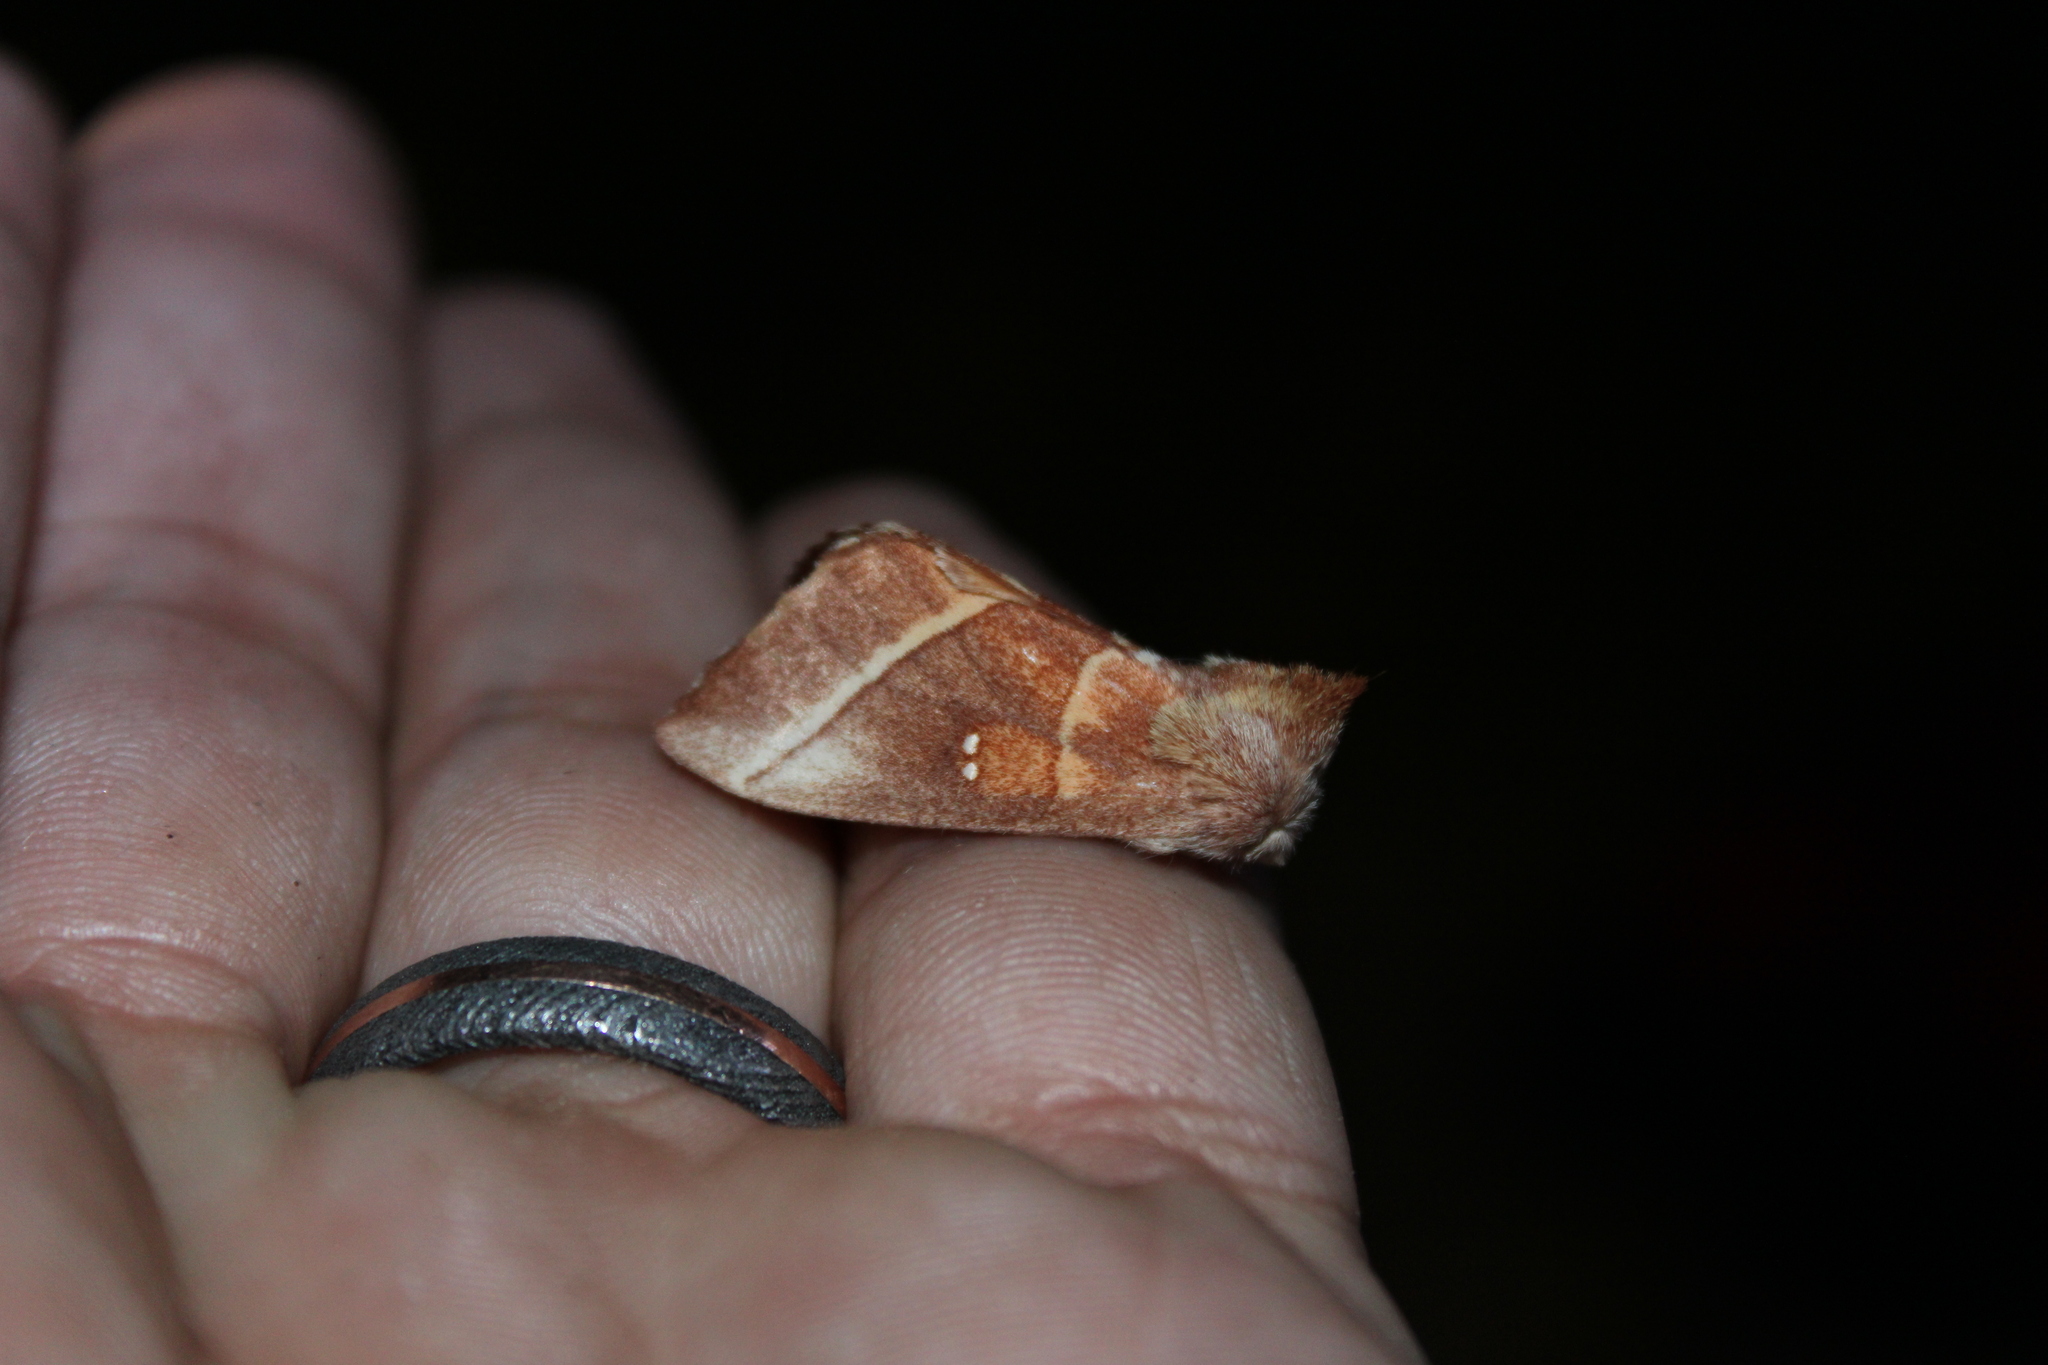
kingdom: Animalia
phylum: Arthropoda
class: Insecta
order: Lepidoptera
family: Notodontidae
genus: Nadata
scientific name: Nadata gibbosa
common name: White-dotted prominent
